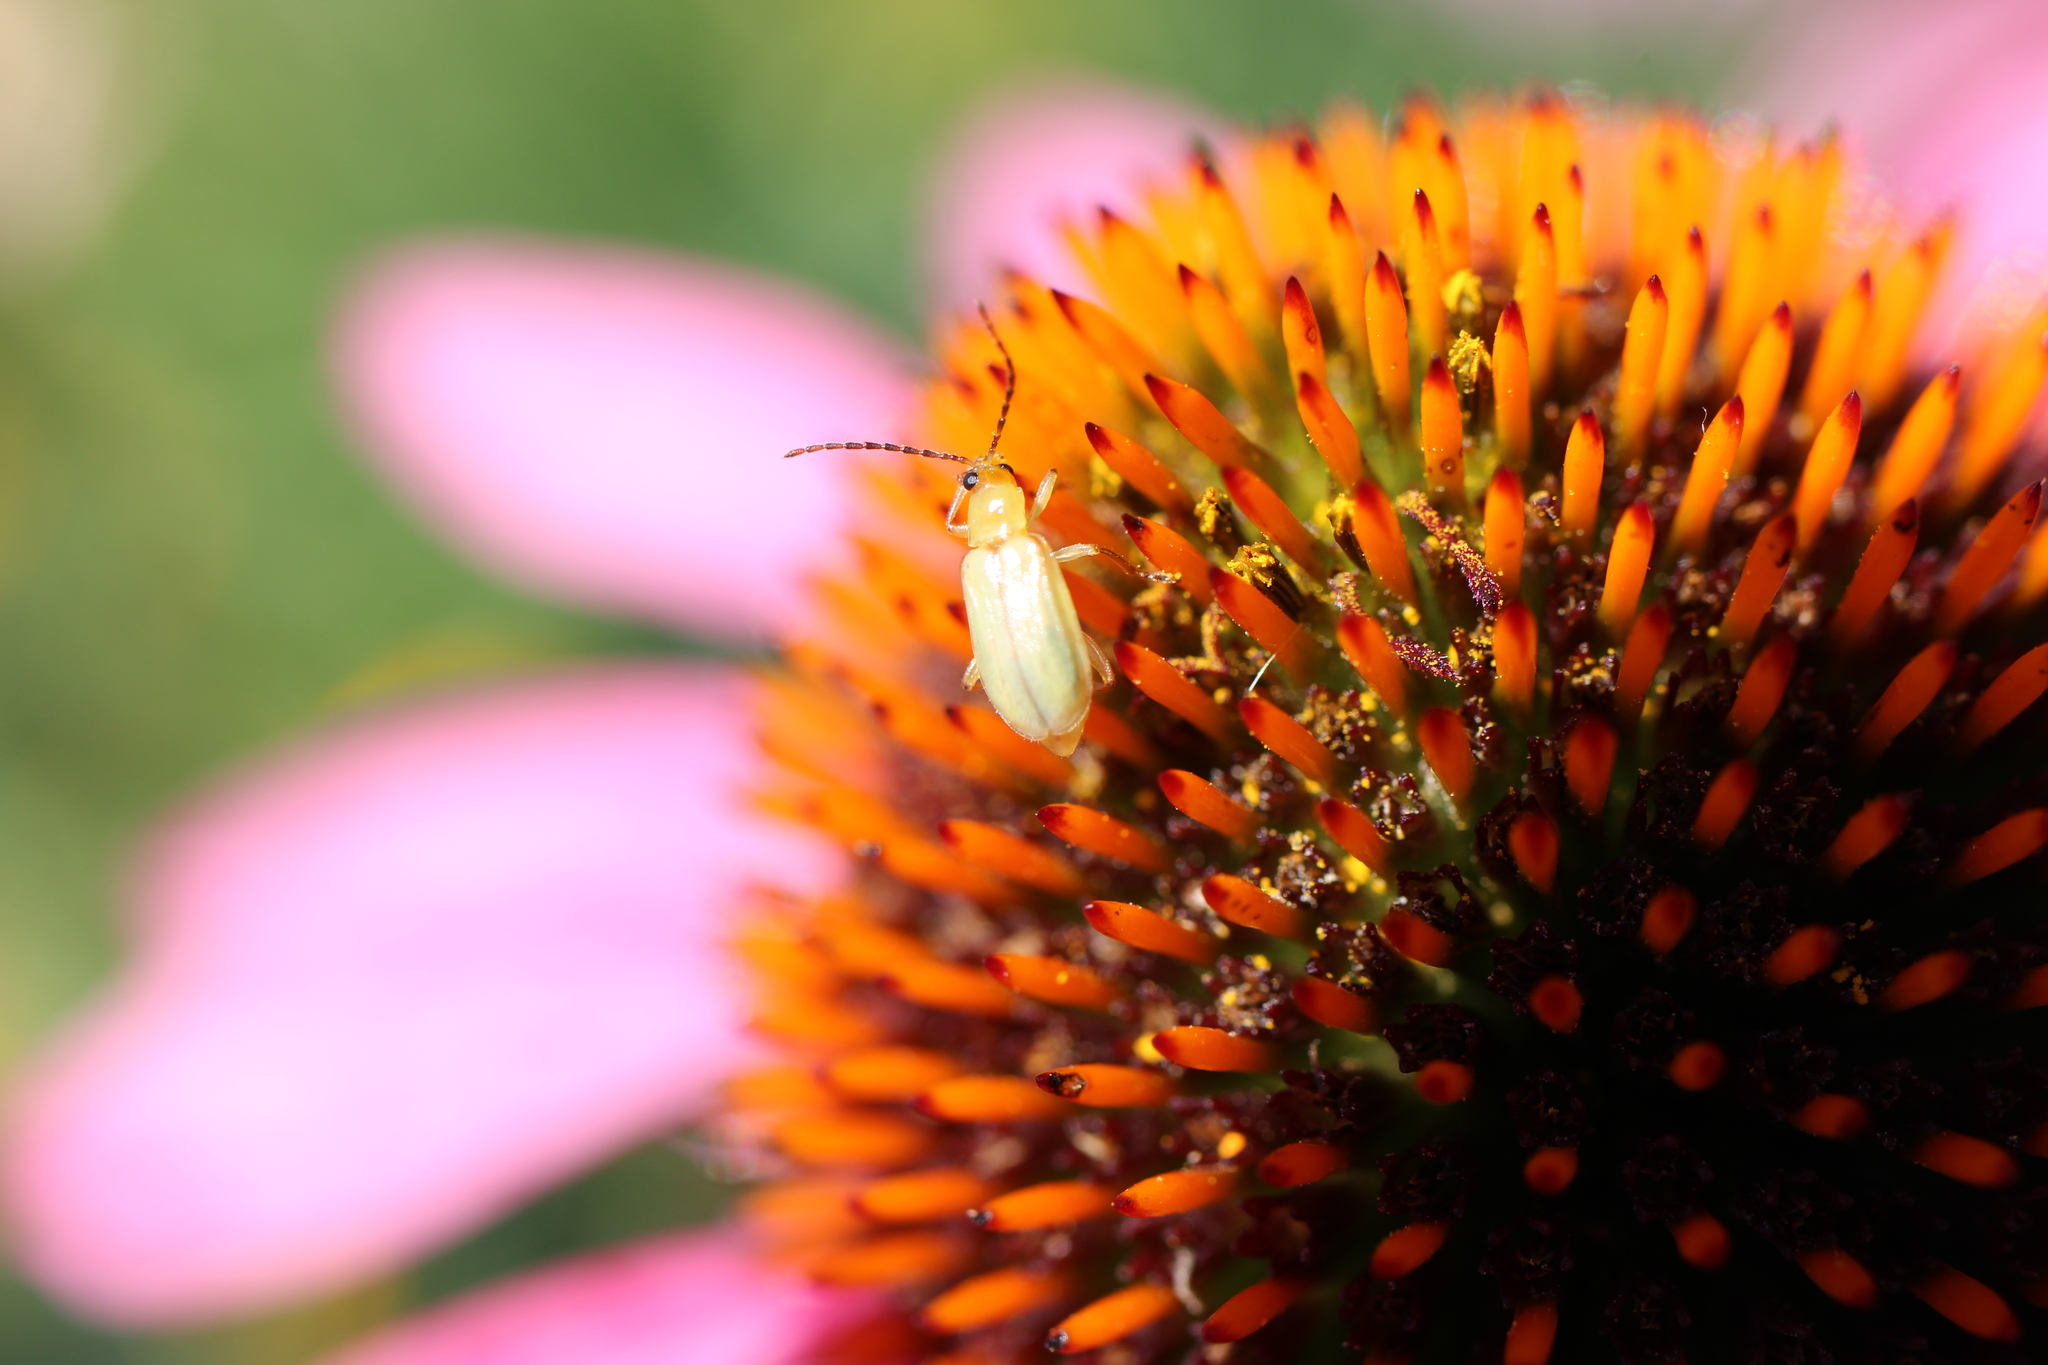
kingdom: Animalia
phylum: Arthropoda
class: Insecta
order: Coleoptera
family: Chrysomelidae
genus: Diabrotica
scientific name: Diabrotica barberi
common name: Northern corn rootworm
